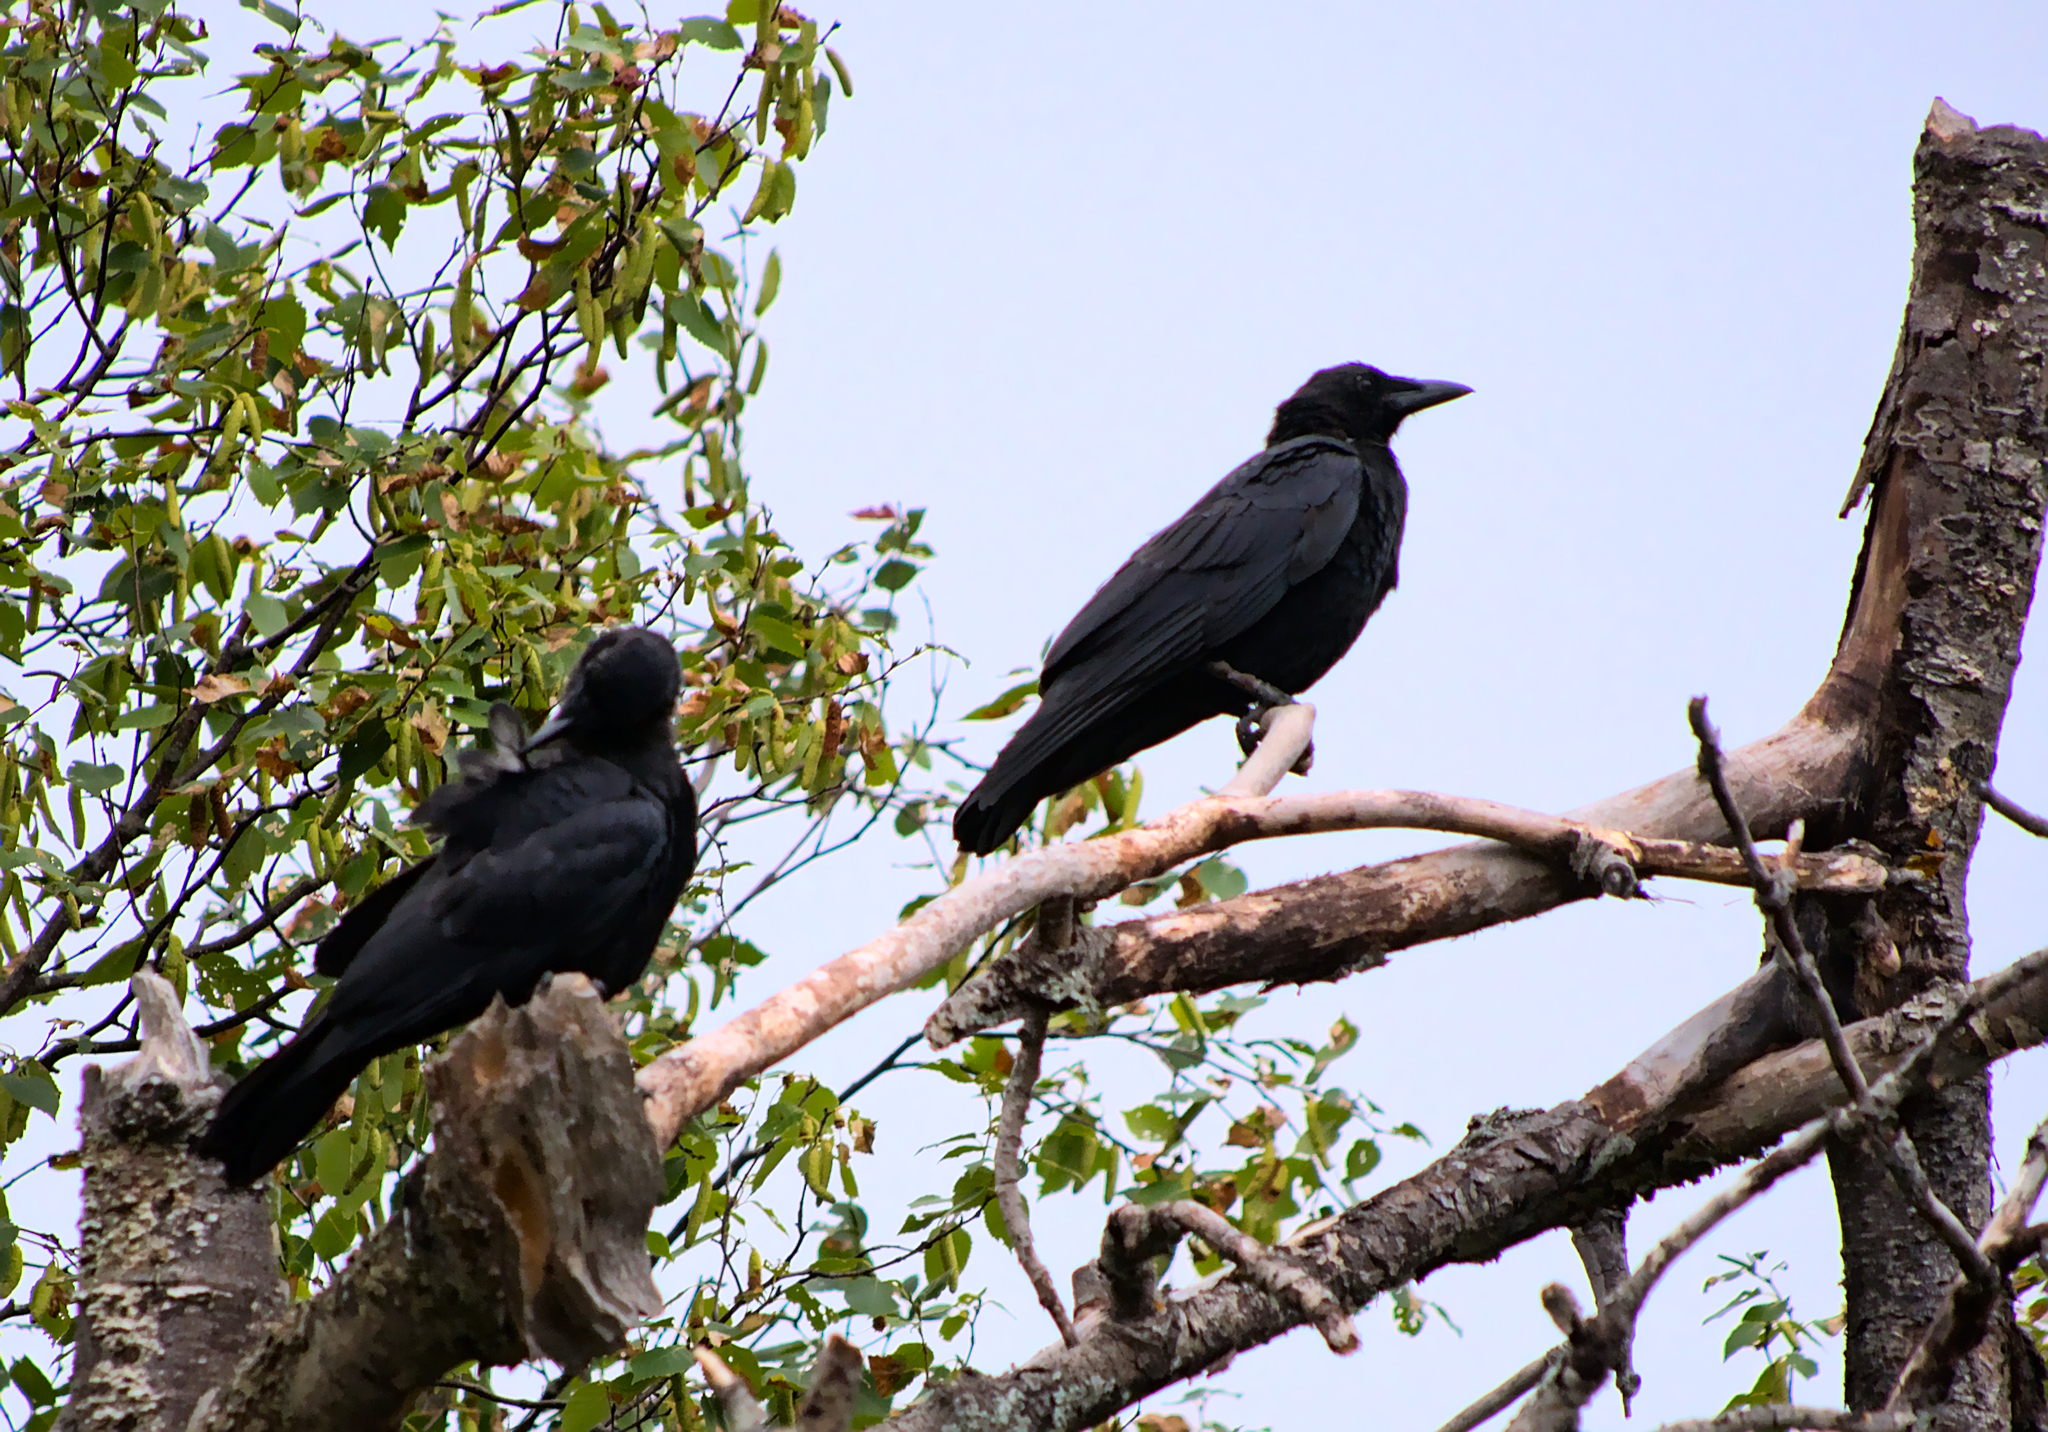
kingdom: Animalia
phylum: Chordata
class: Aves
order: Passeriformes
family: Corvidae
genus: Corvus
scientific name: Corvus brachyrhynchos
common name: American crow
